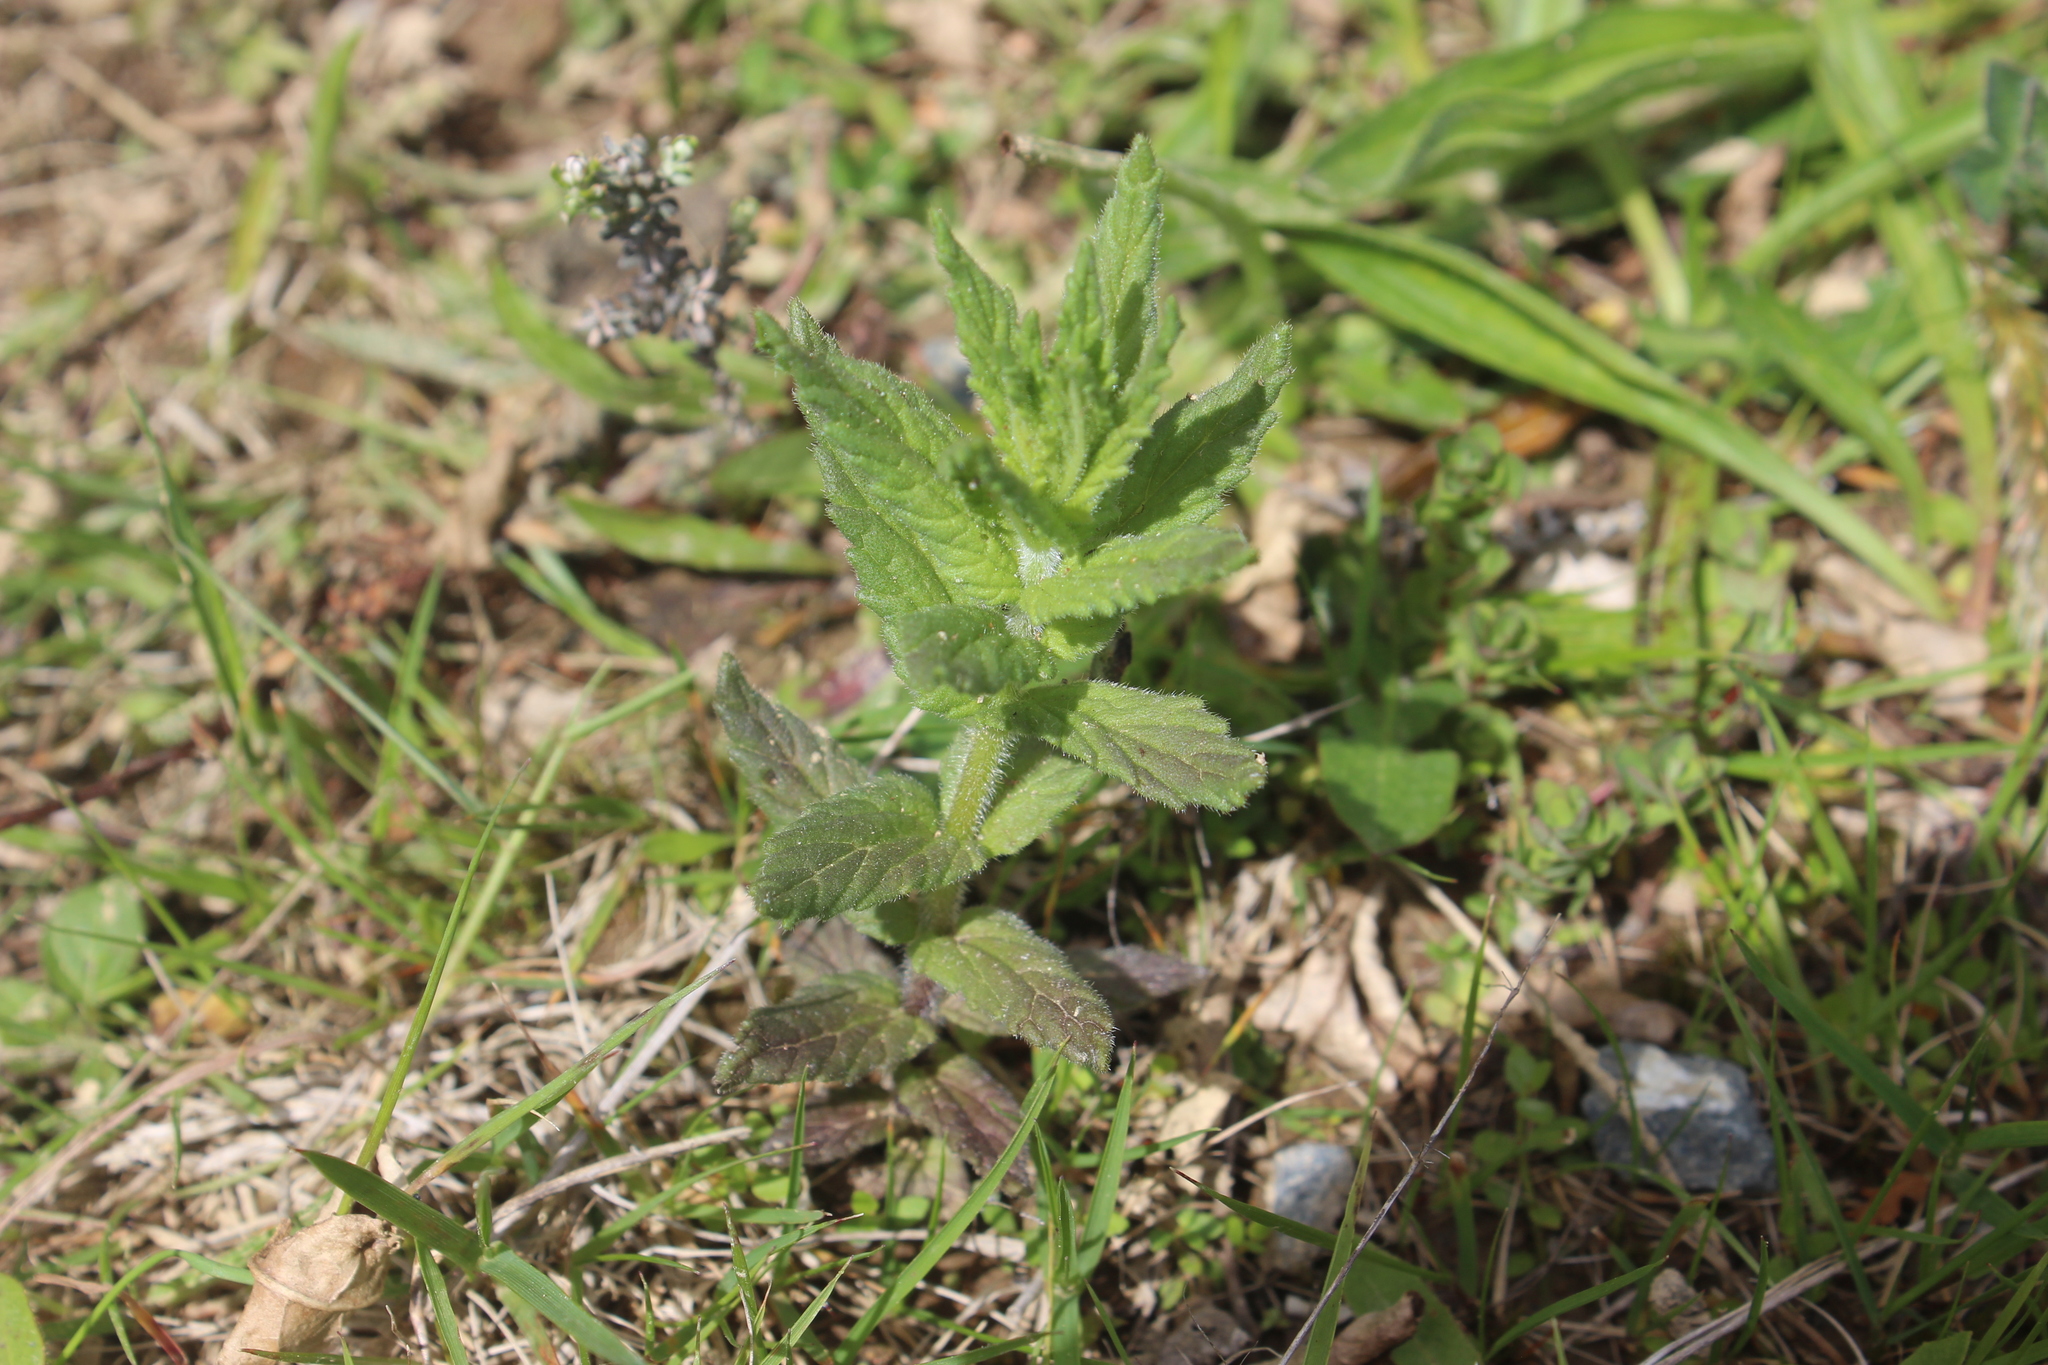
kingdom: Plantae
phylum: Tracheophyta
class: Magnoliopsida
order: Lamiales
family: Orobanchaceae
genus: Bellardia
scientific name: Bellardia viscosa
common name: Sticky parentucellia
